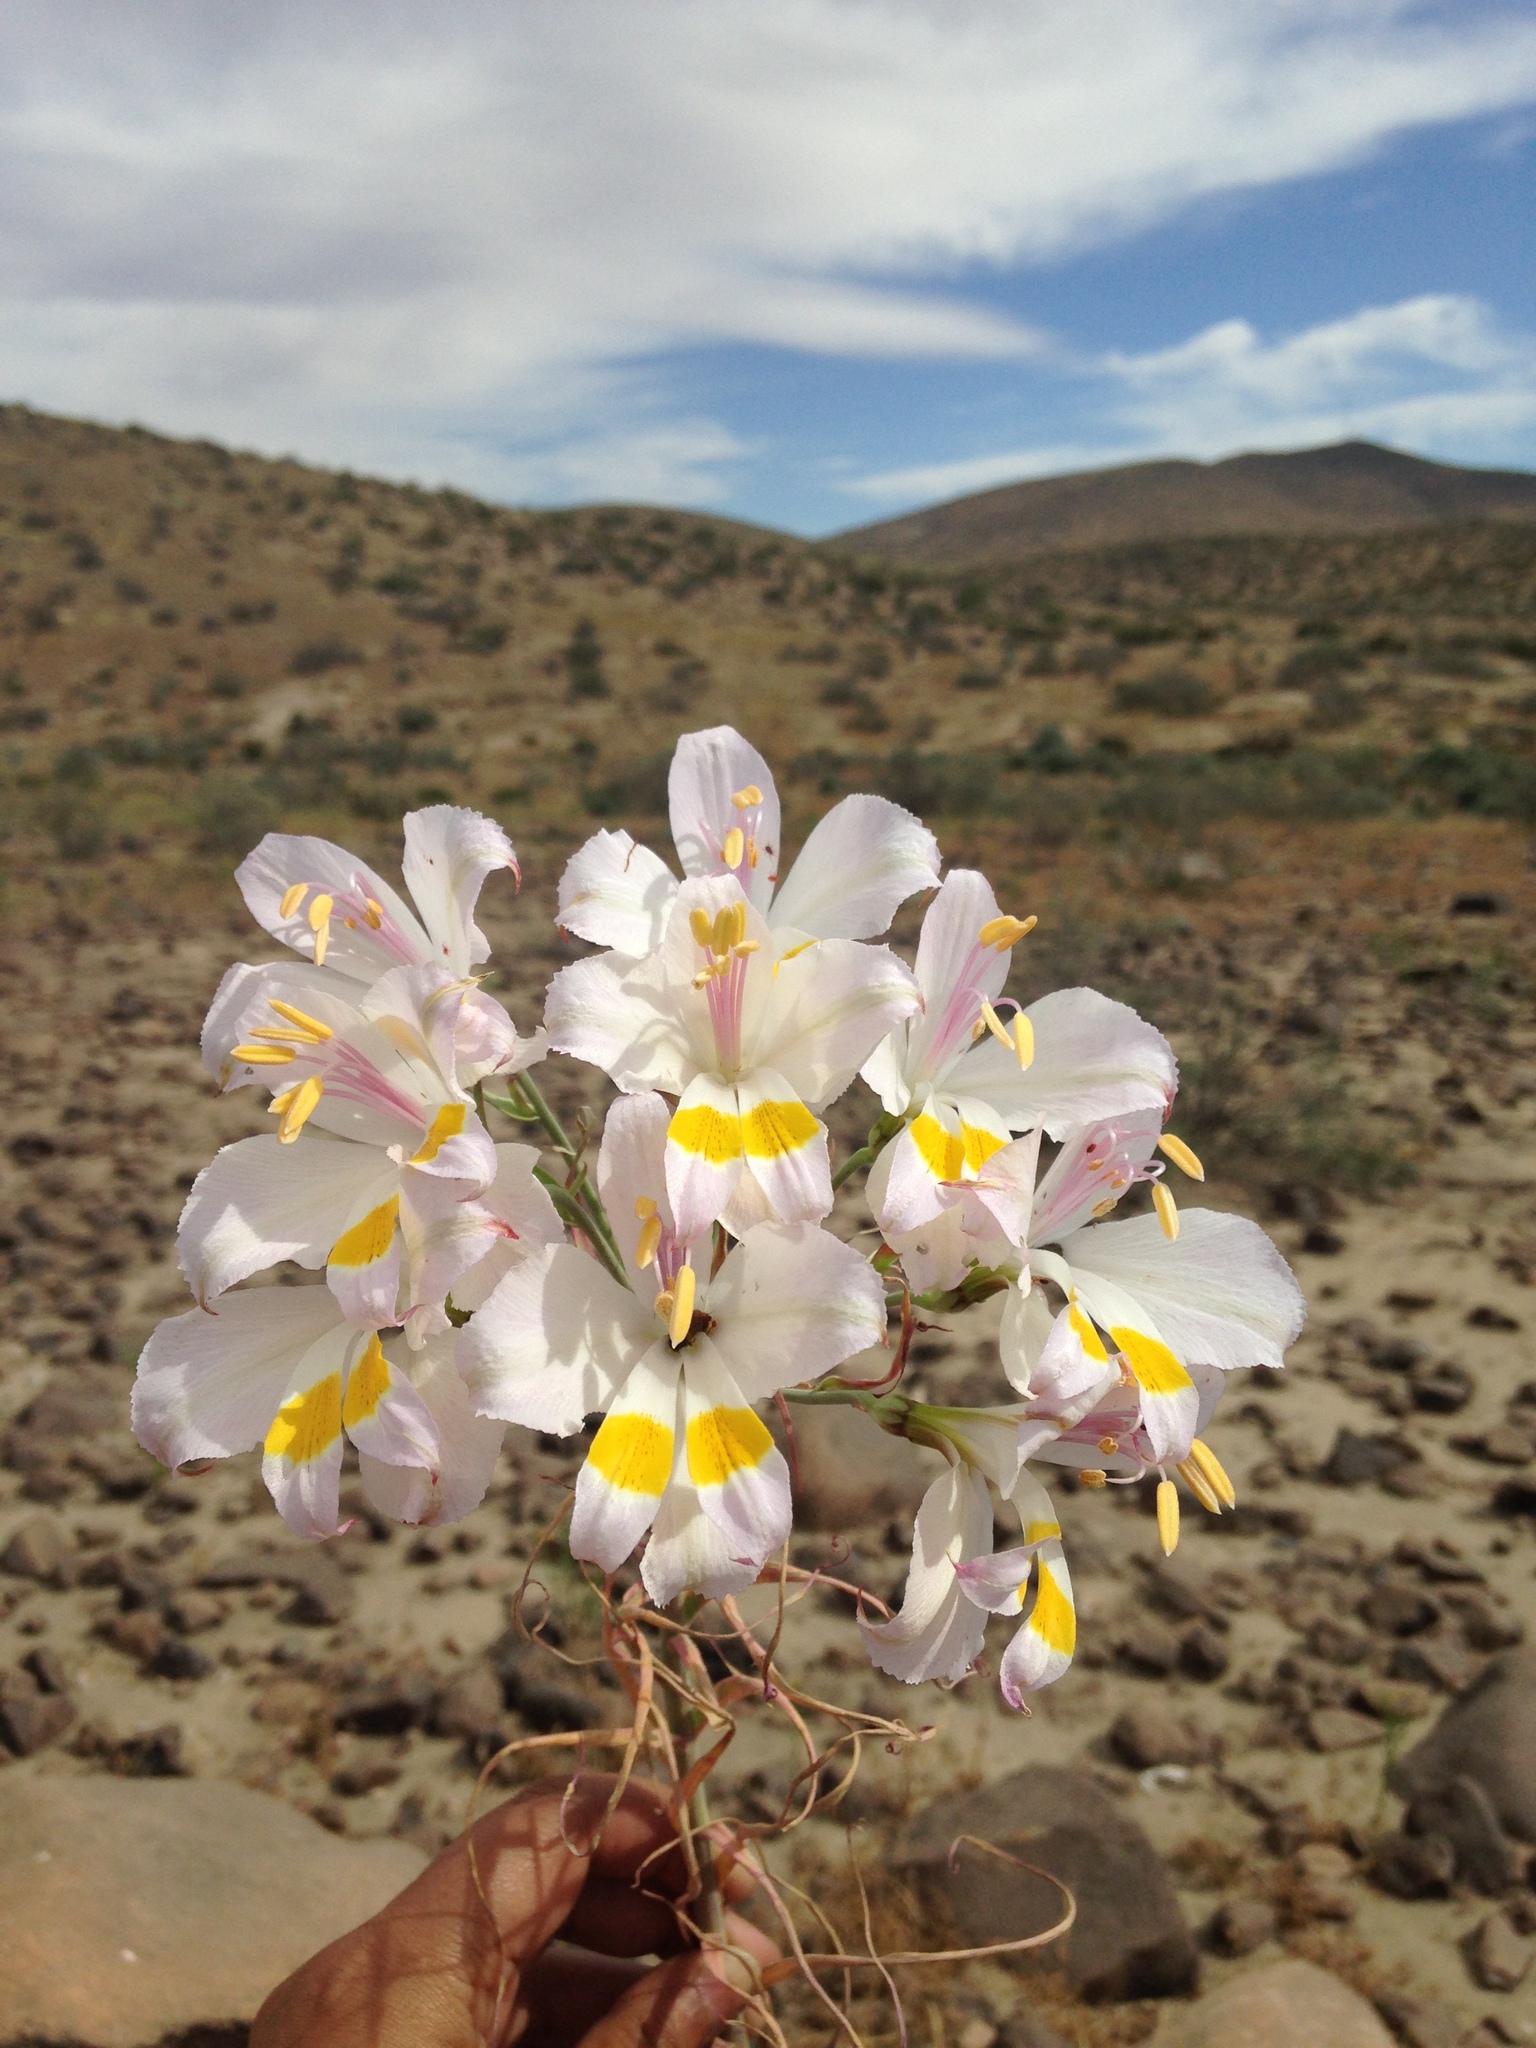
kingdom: Plantae
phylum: Tracheophyta
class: Liliopsida
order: Liliales
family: Alstroemeriaceae
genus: Alstroemeria
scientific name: Alstroemeria leporina
